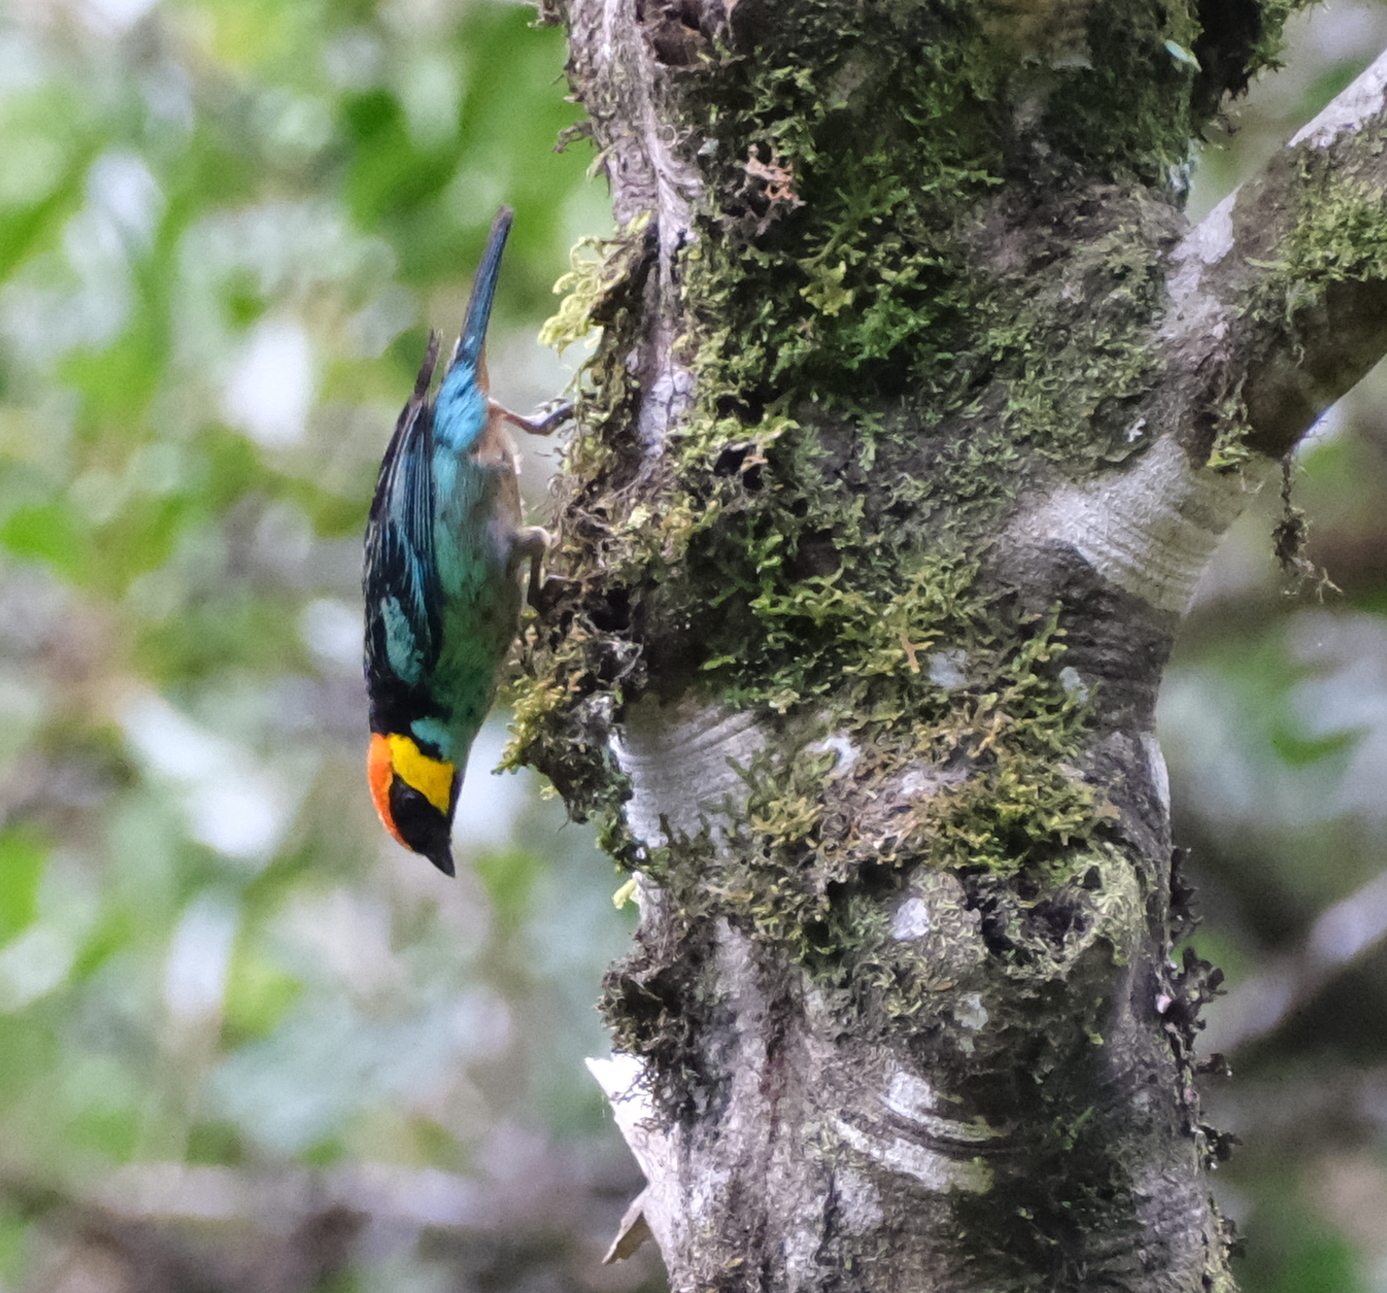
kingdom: Animalia
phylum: Chordata
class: Aves
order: Passeriformes
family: Thraupidae
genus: Tangara
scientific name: Tangara xanthocephala
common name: Saffron-crowned tanager
